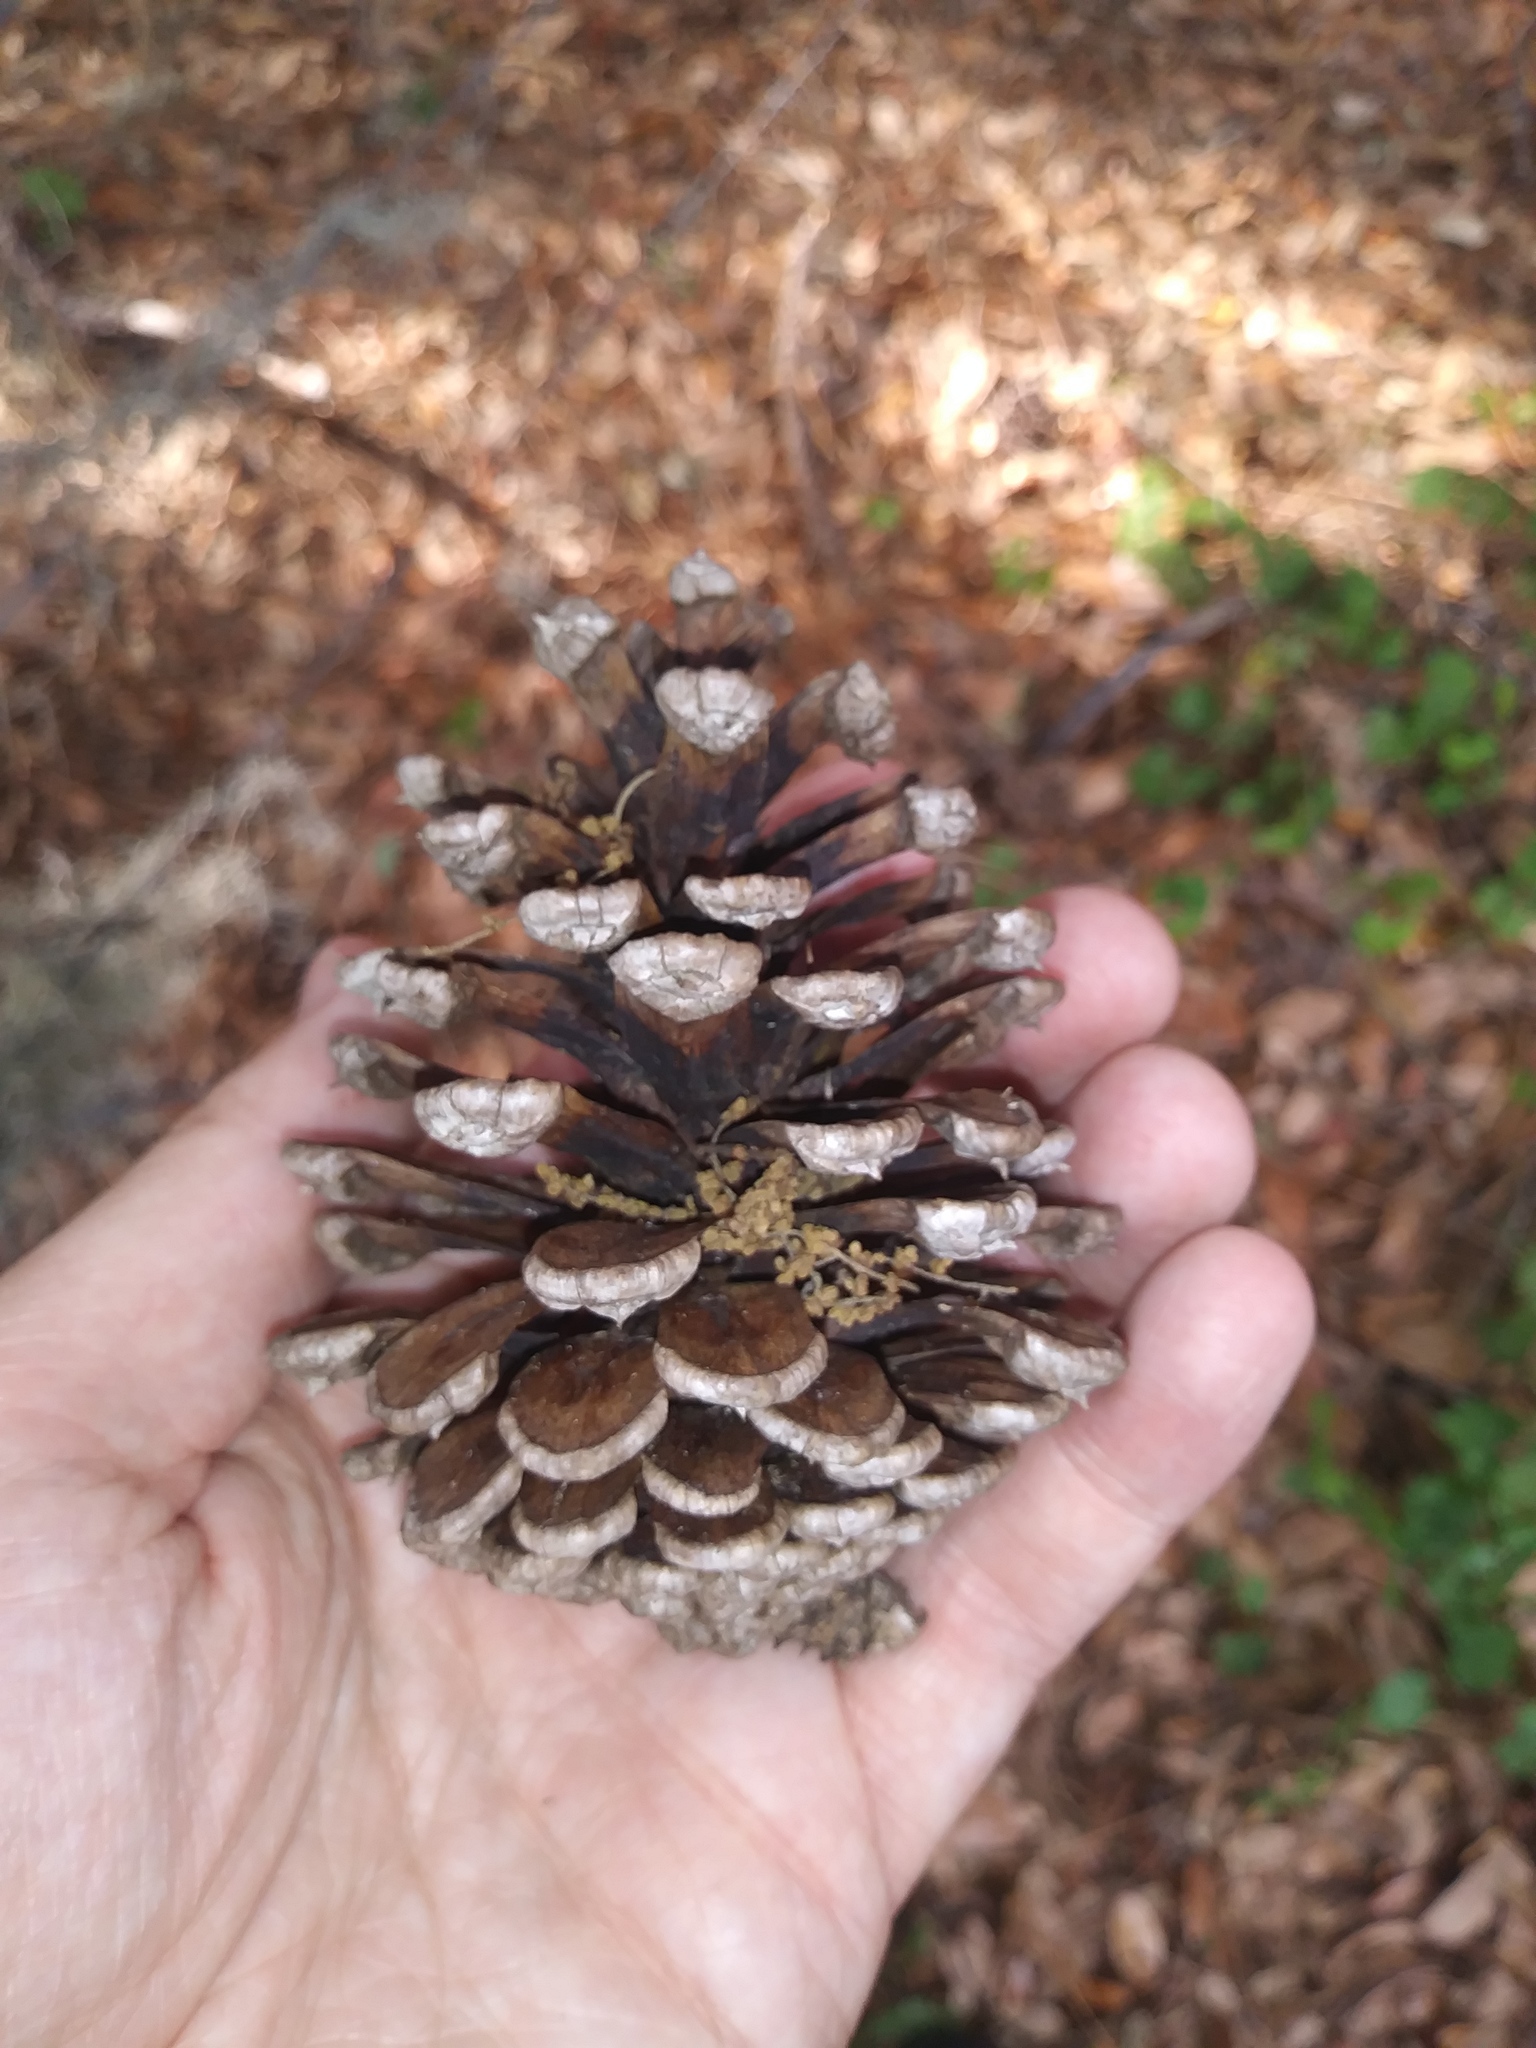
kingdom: Plantae
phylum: Tracheophyta
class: Pinopsida
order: Pinales
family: Pinaceae
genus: Pinus
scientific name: Pinus elliottii
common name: Slash pine
